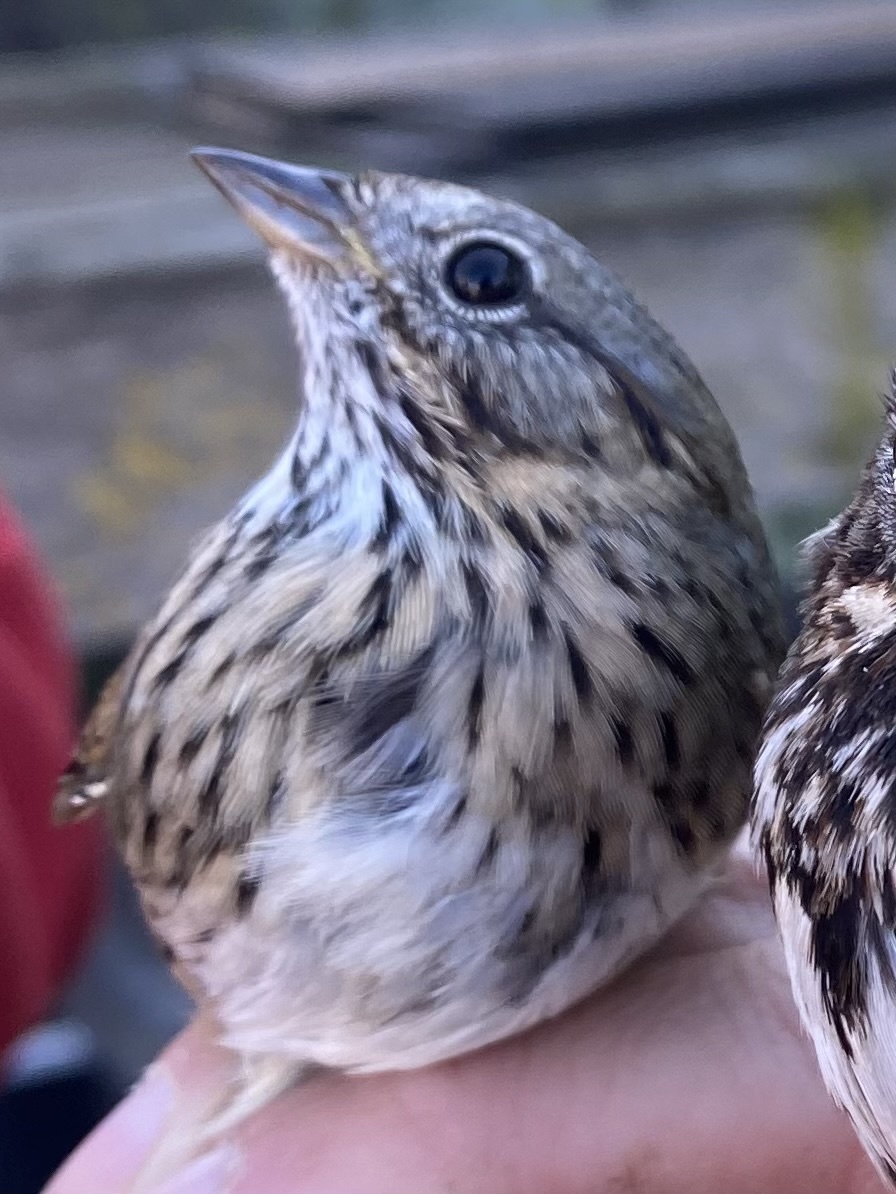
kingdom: Animalia
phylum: Chordata
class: Aves
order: Passeriformes
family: Passerellidae
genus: Melospiza
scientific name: Melospiza lincolnii
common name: Lincoln's sparrow
